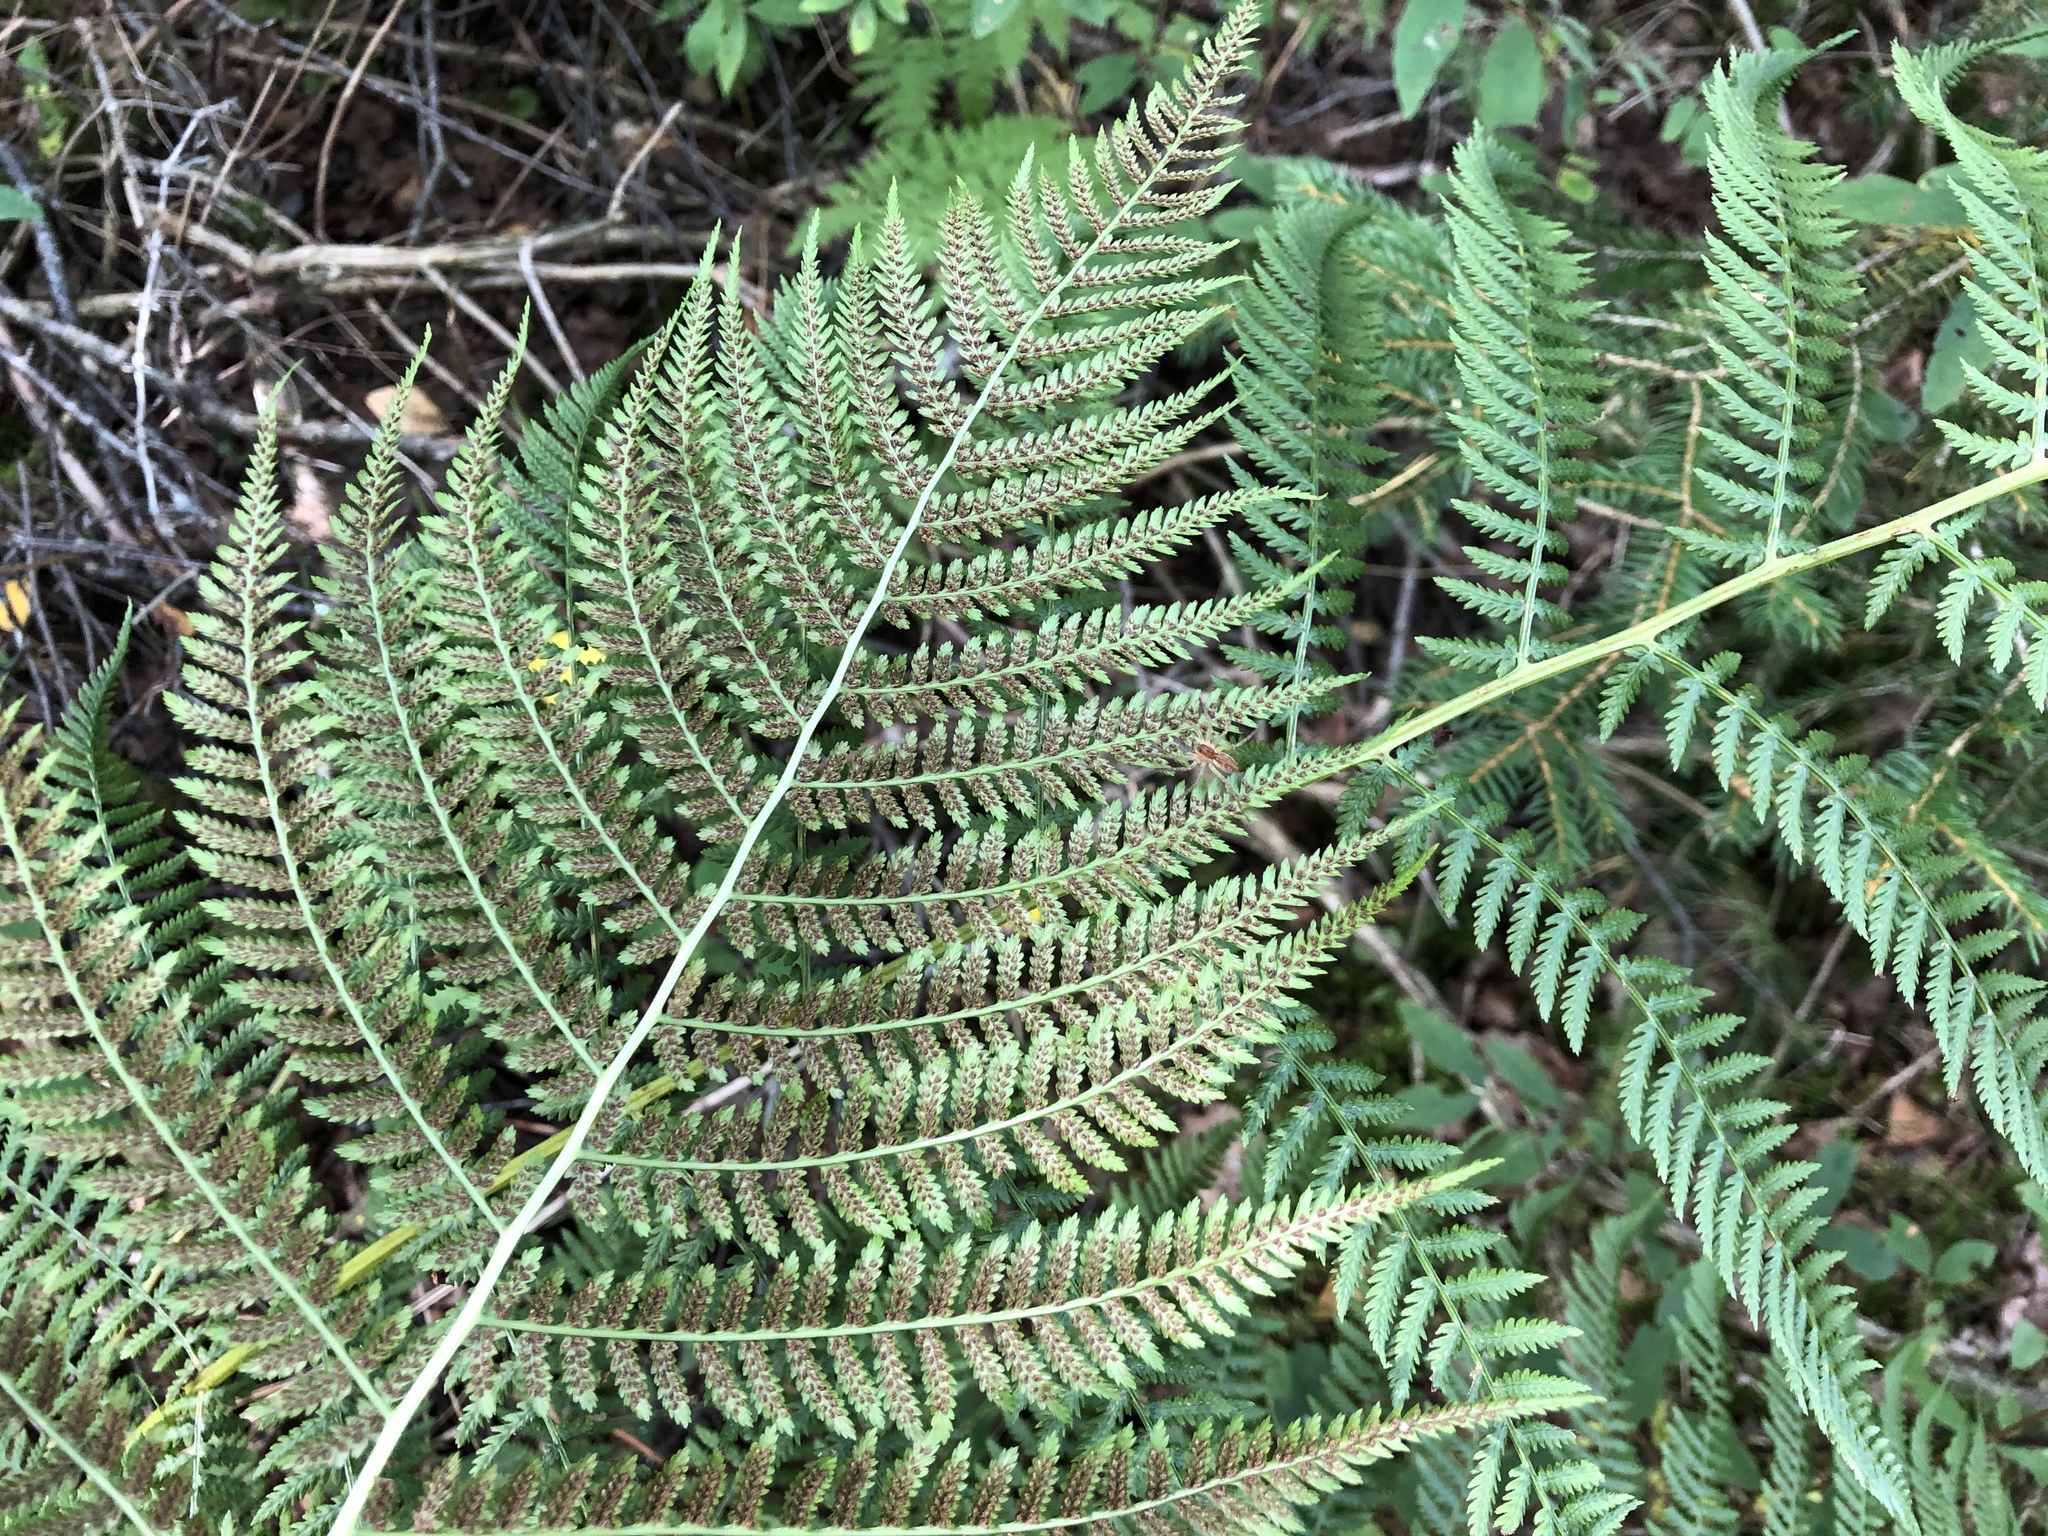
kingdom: Plantae
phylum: Tracheophyta
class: Polypodiopsida
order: Polypodiales
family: Athyriaceae
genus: Athyrium
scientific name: Athyrium filix-femina
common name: Lady fern
